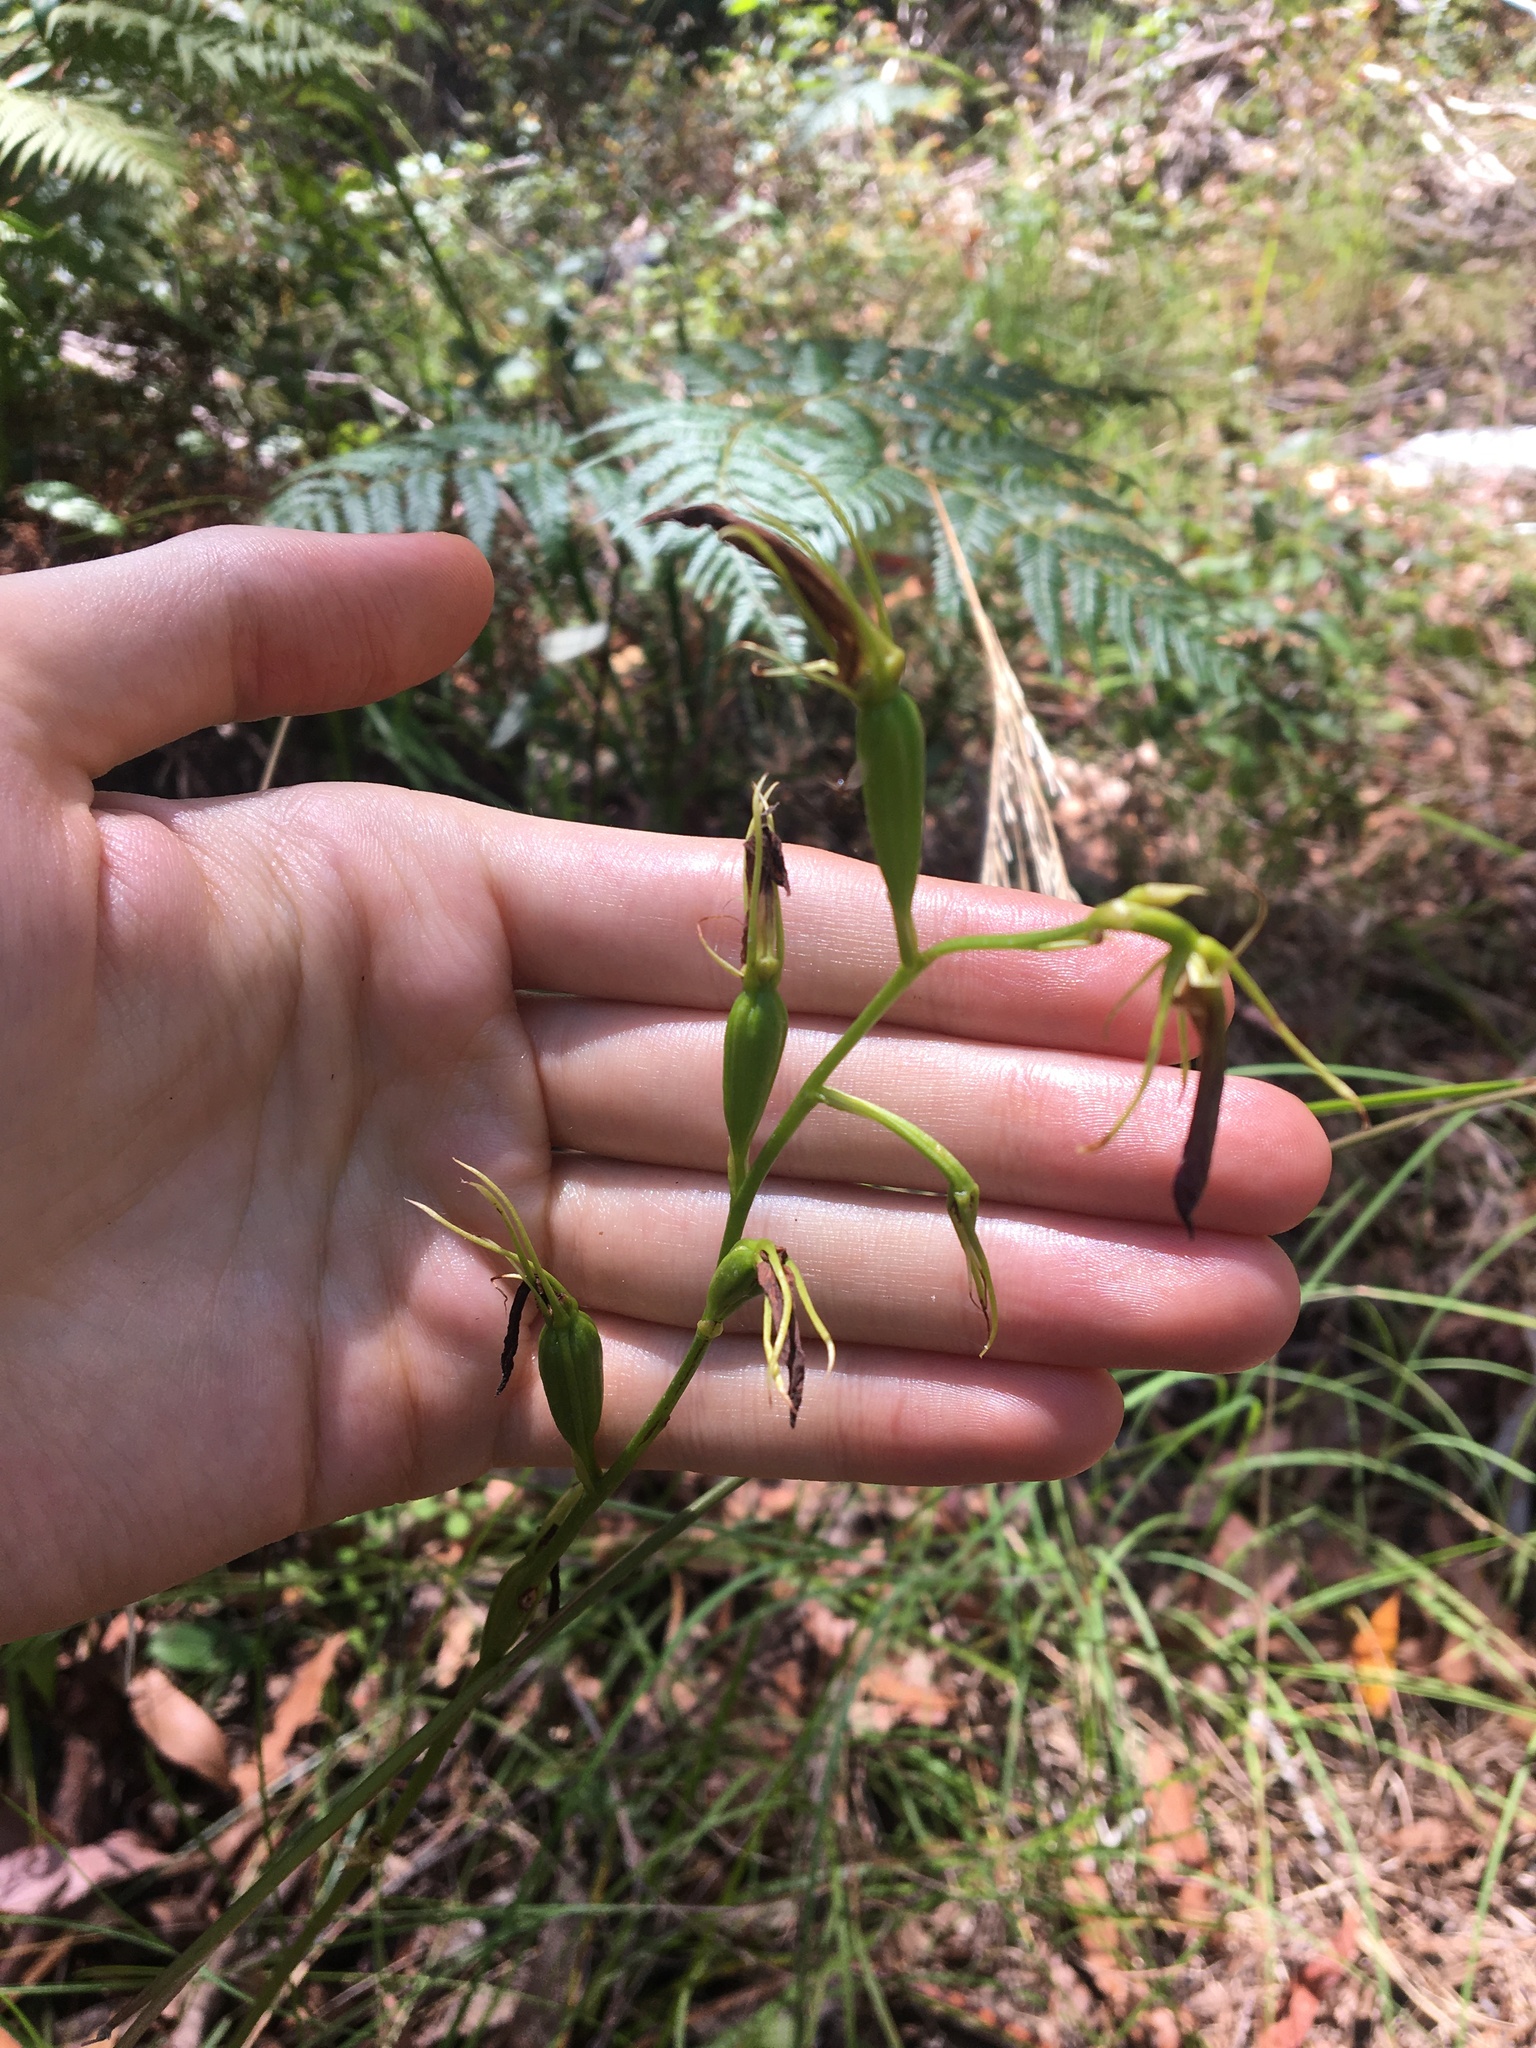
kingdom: Plantae
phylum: Tracheophyta
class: Liliopsida
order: Asparagales
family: Orchidaceae
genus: Cryptostylis
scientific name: Cryptostylis subulata
